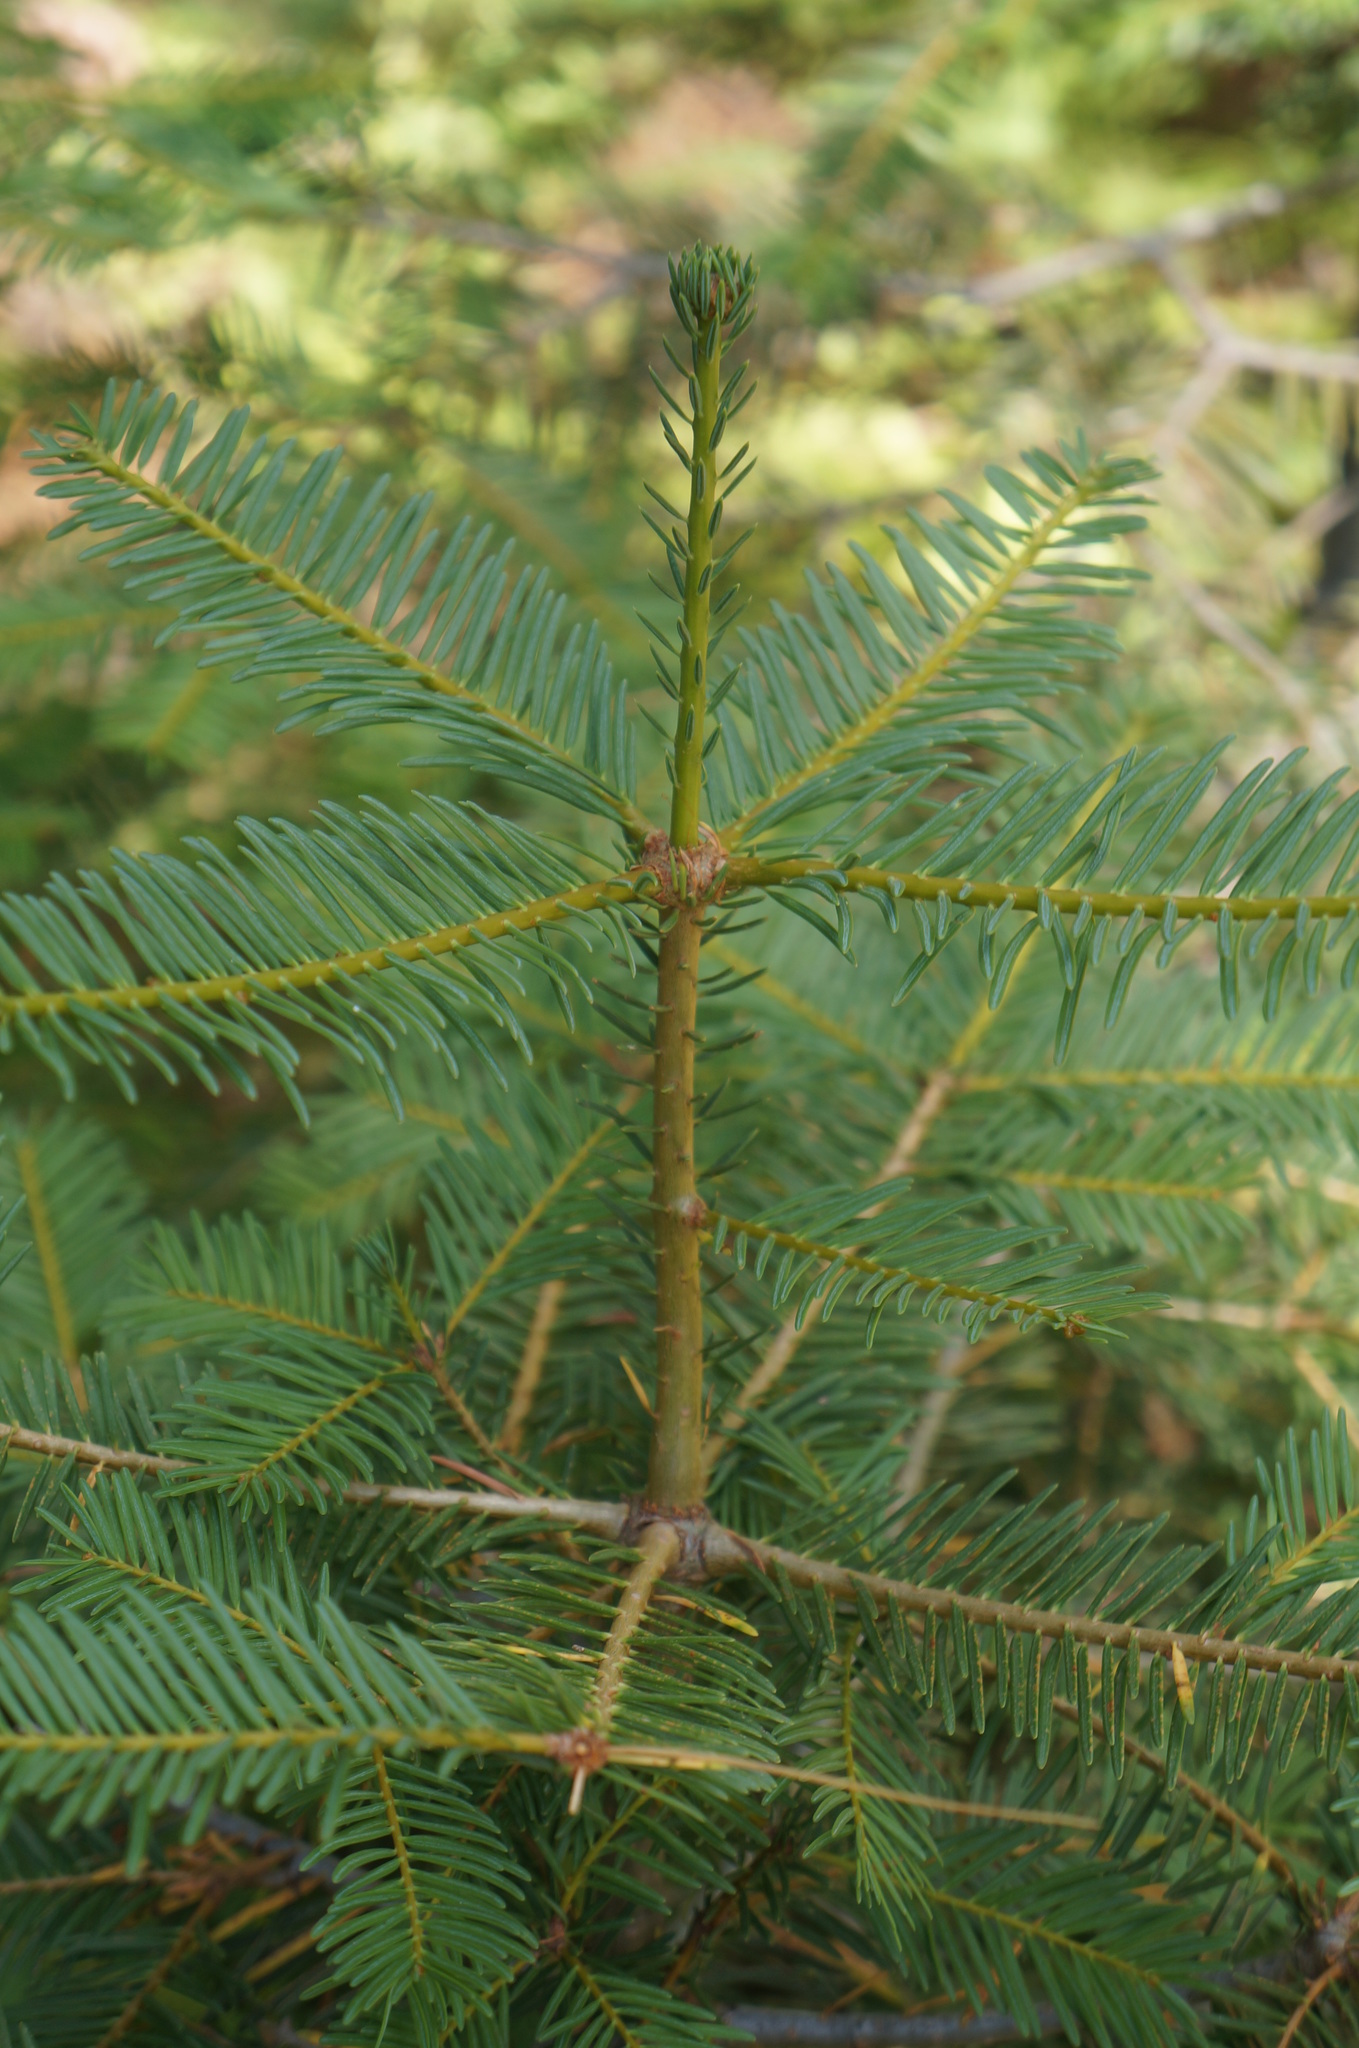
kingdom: Plantae
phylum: Tracheophyta
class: Pinopsida
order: Pinales
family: Pinaceae
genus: Abies
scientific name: Abies concolor
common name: Colorado fir
